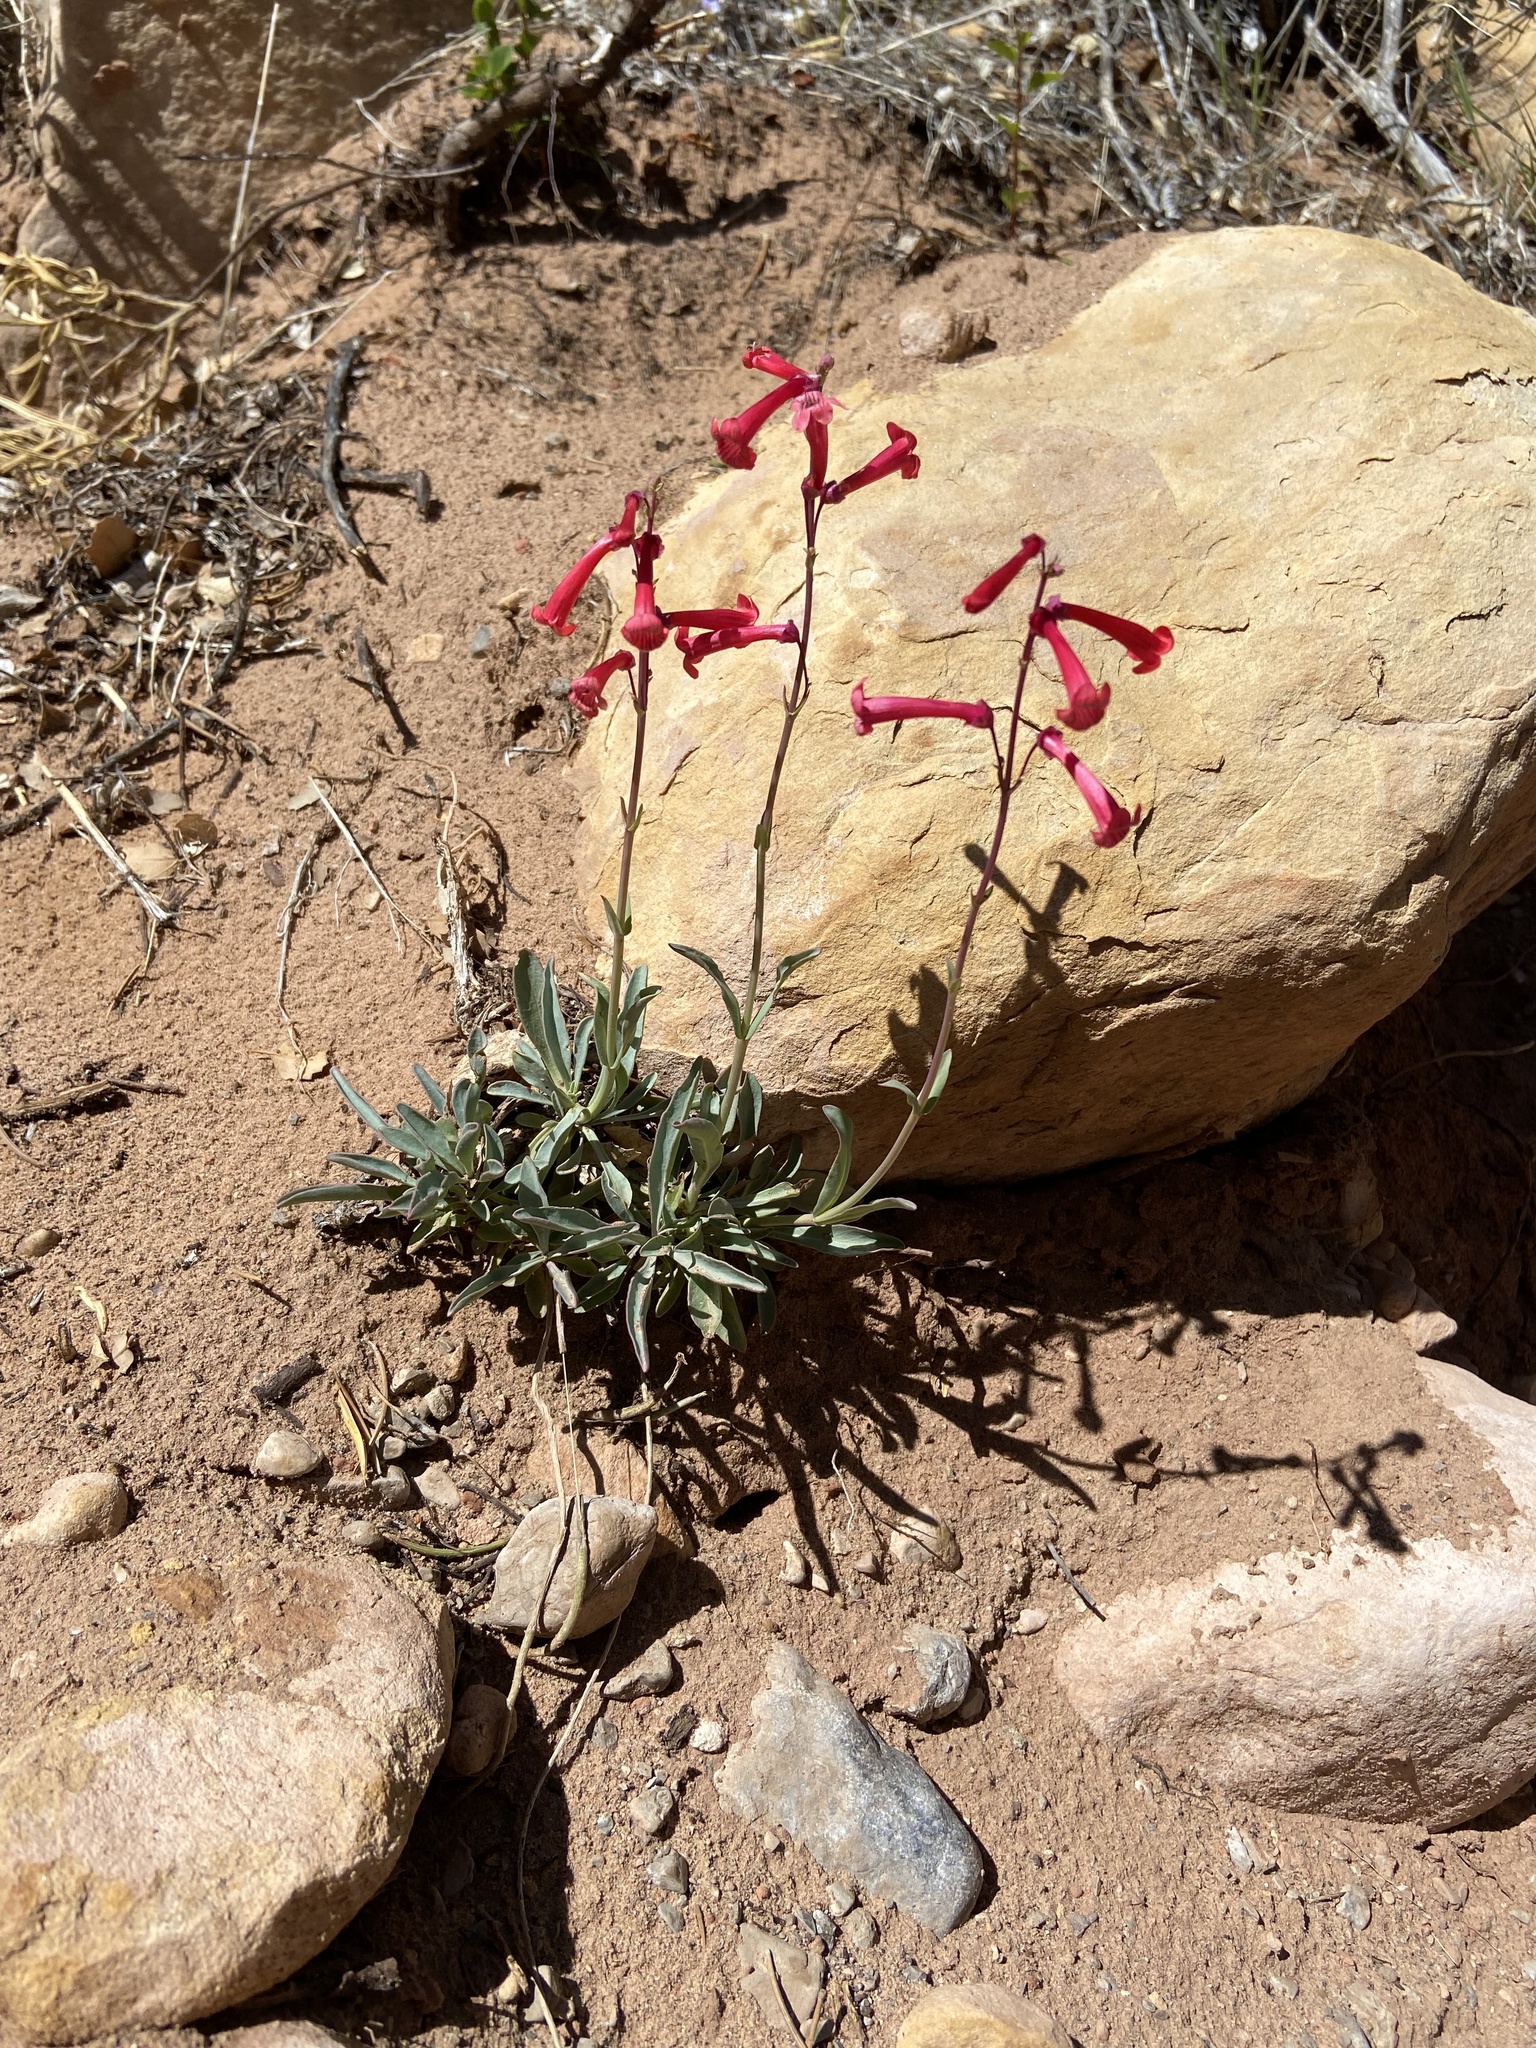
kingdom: Plantae
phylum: Tracheophyta
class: Magnoliopsida
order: Lamiales
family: Plantaginaceae
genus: Penstemon
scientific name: Penstemon utahensis
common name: Utah penstemon
